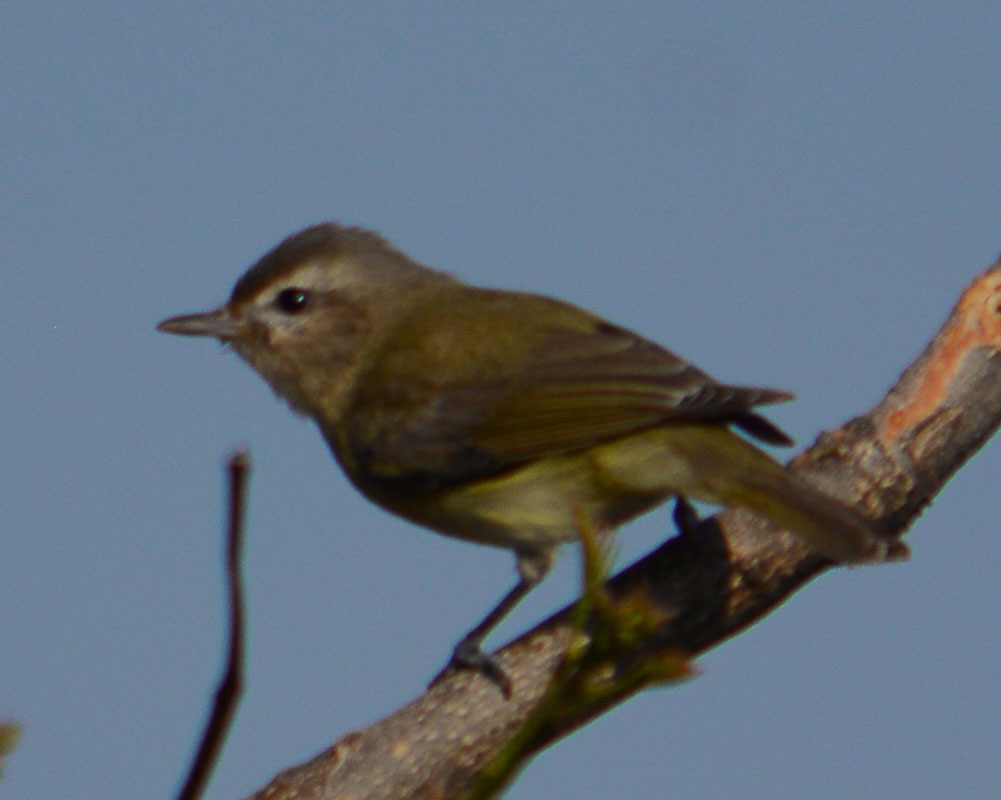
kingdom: Animalia
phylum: Chordata
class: Aves
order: Passeriformes
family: Vireonidae
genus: Vireo
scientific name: Vireo gilvus
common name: Warbling vireo
